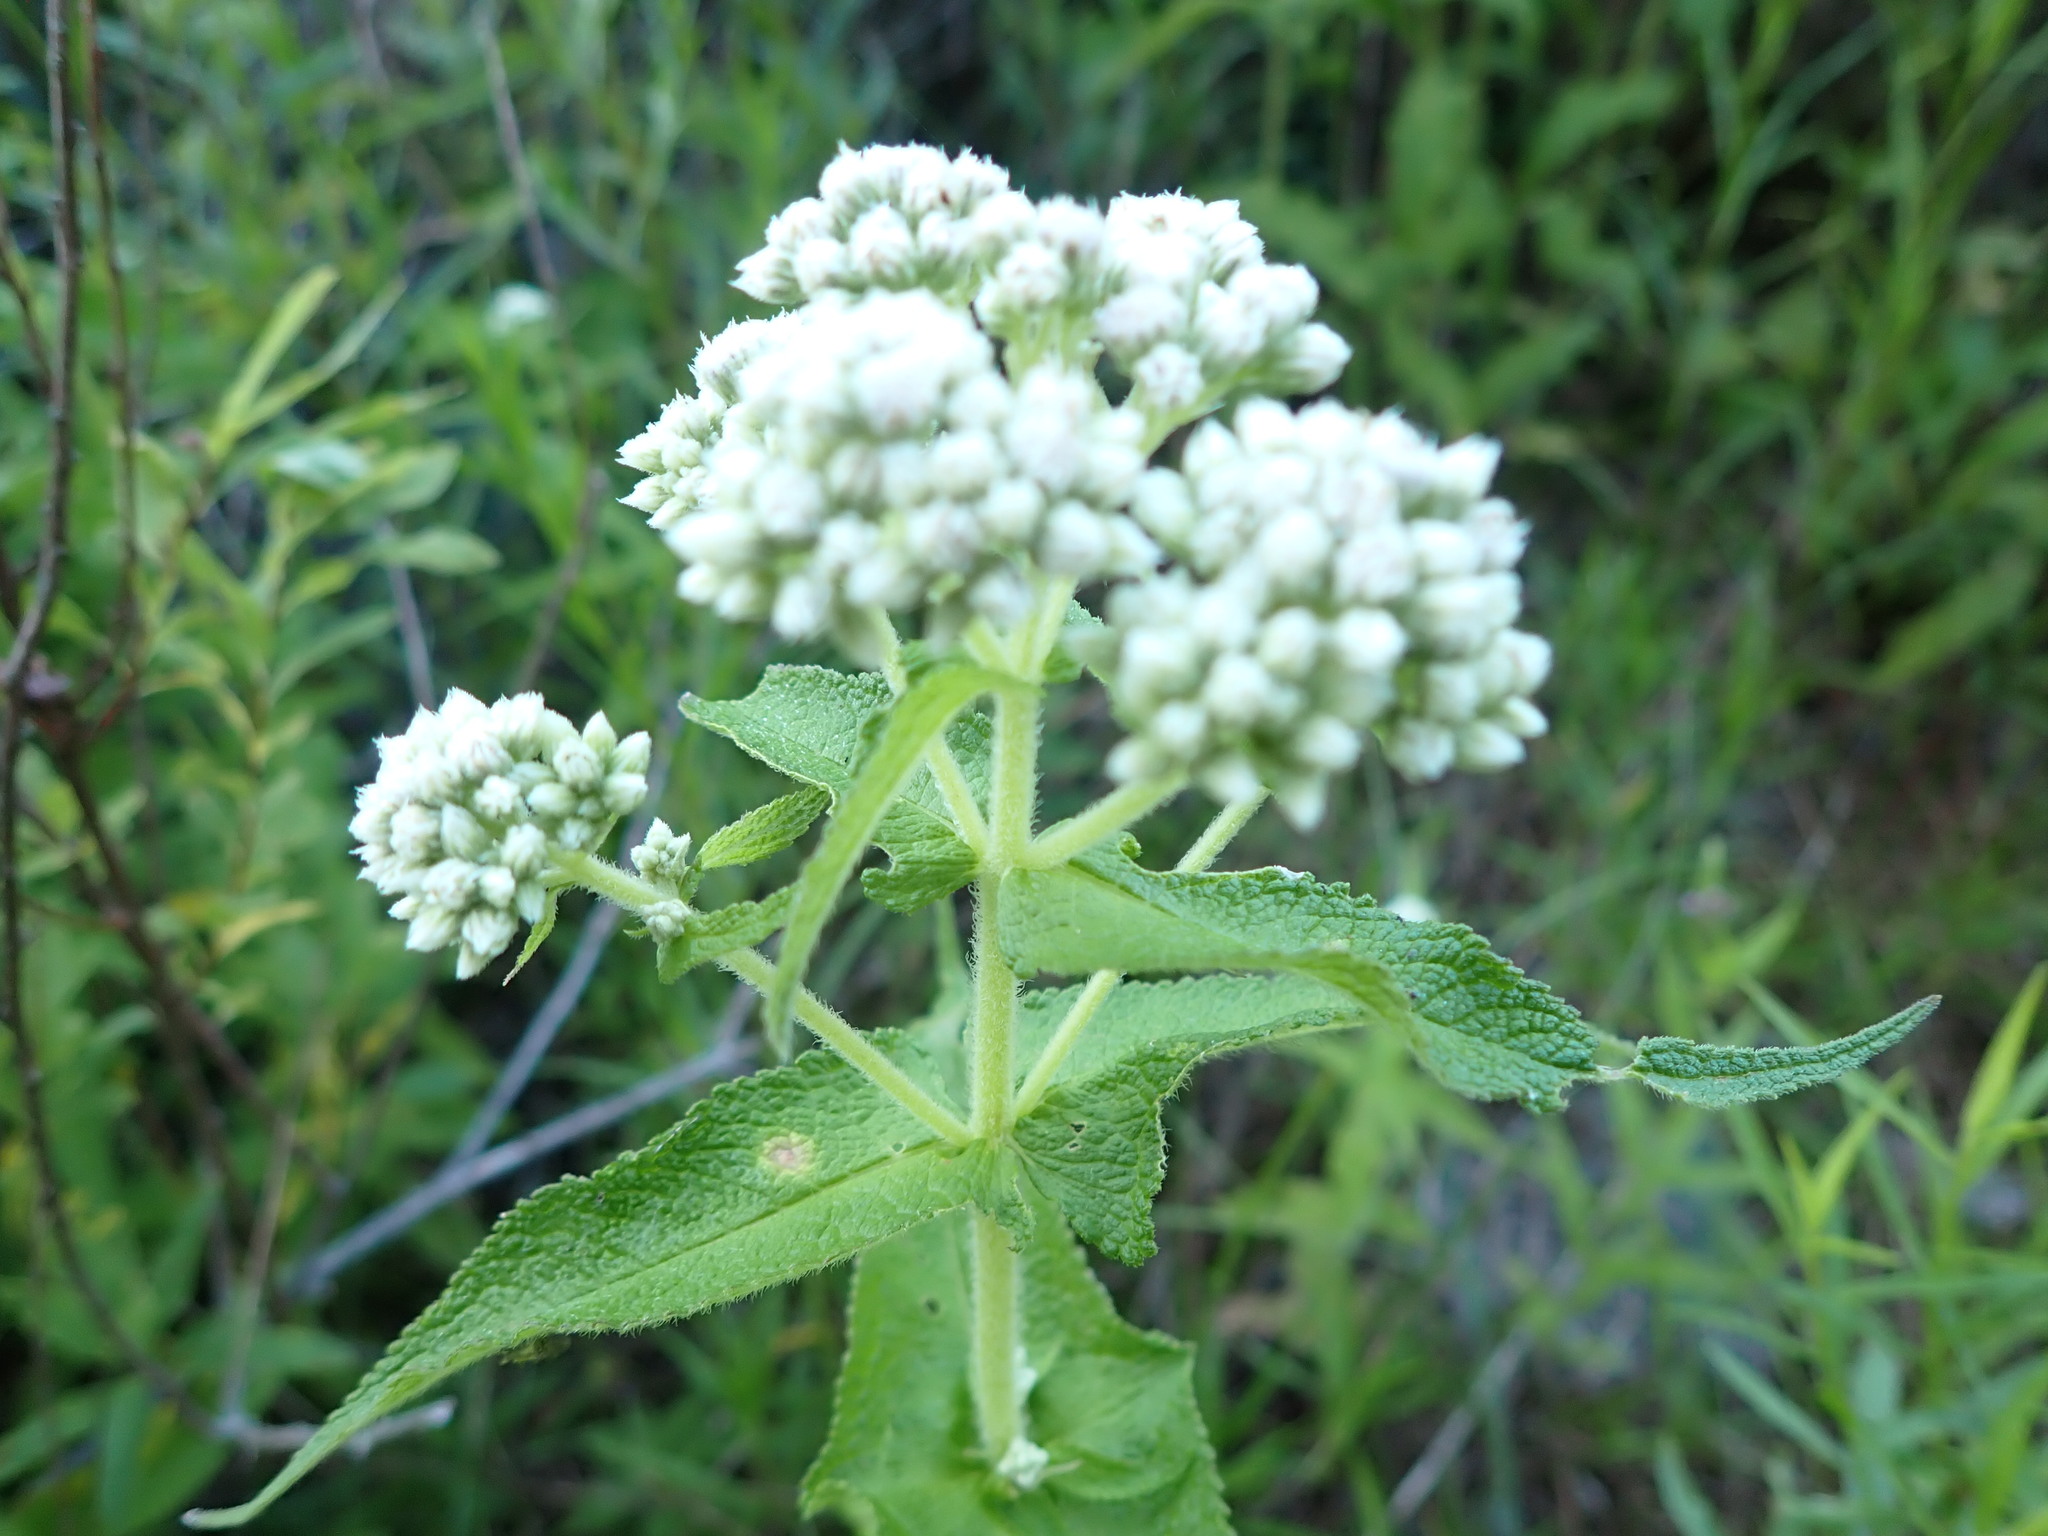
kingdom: Plantae
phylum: Tracheophyta
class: Magnoliopsida
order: Asterales
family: Asteraceae
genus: Eupatorium
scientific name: Eupatorium perfoliatum
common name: Boneset
